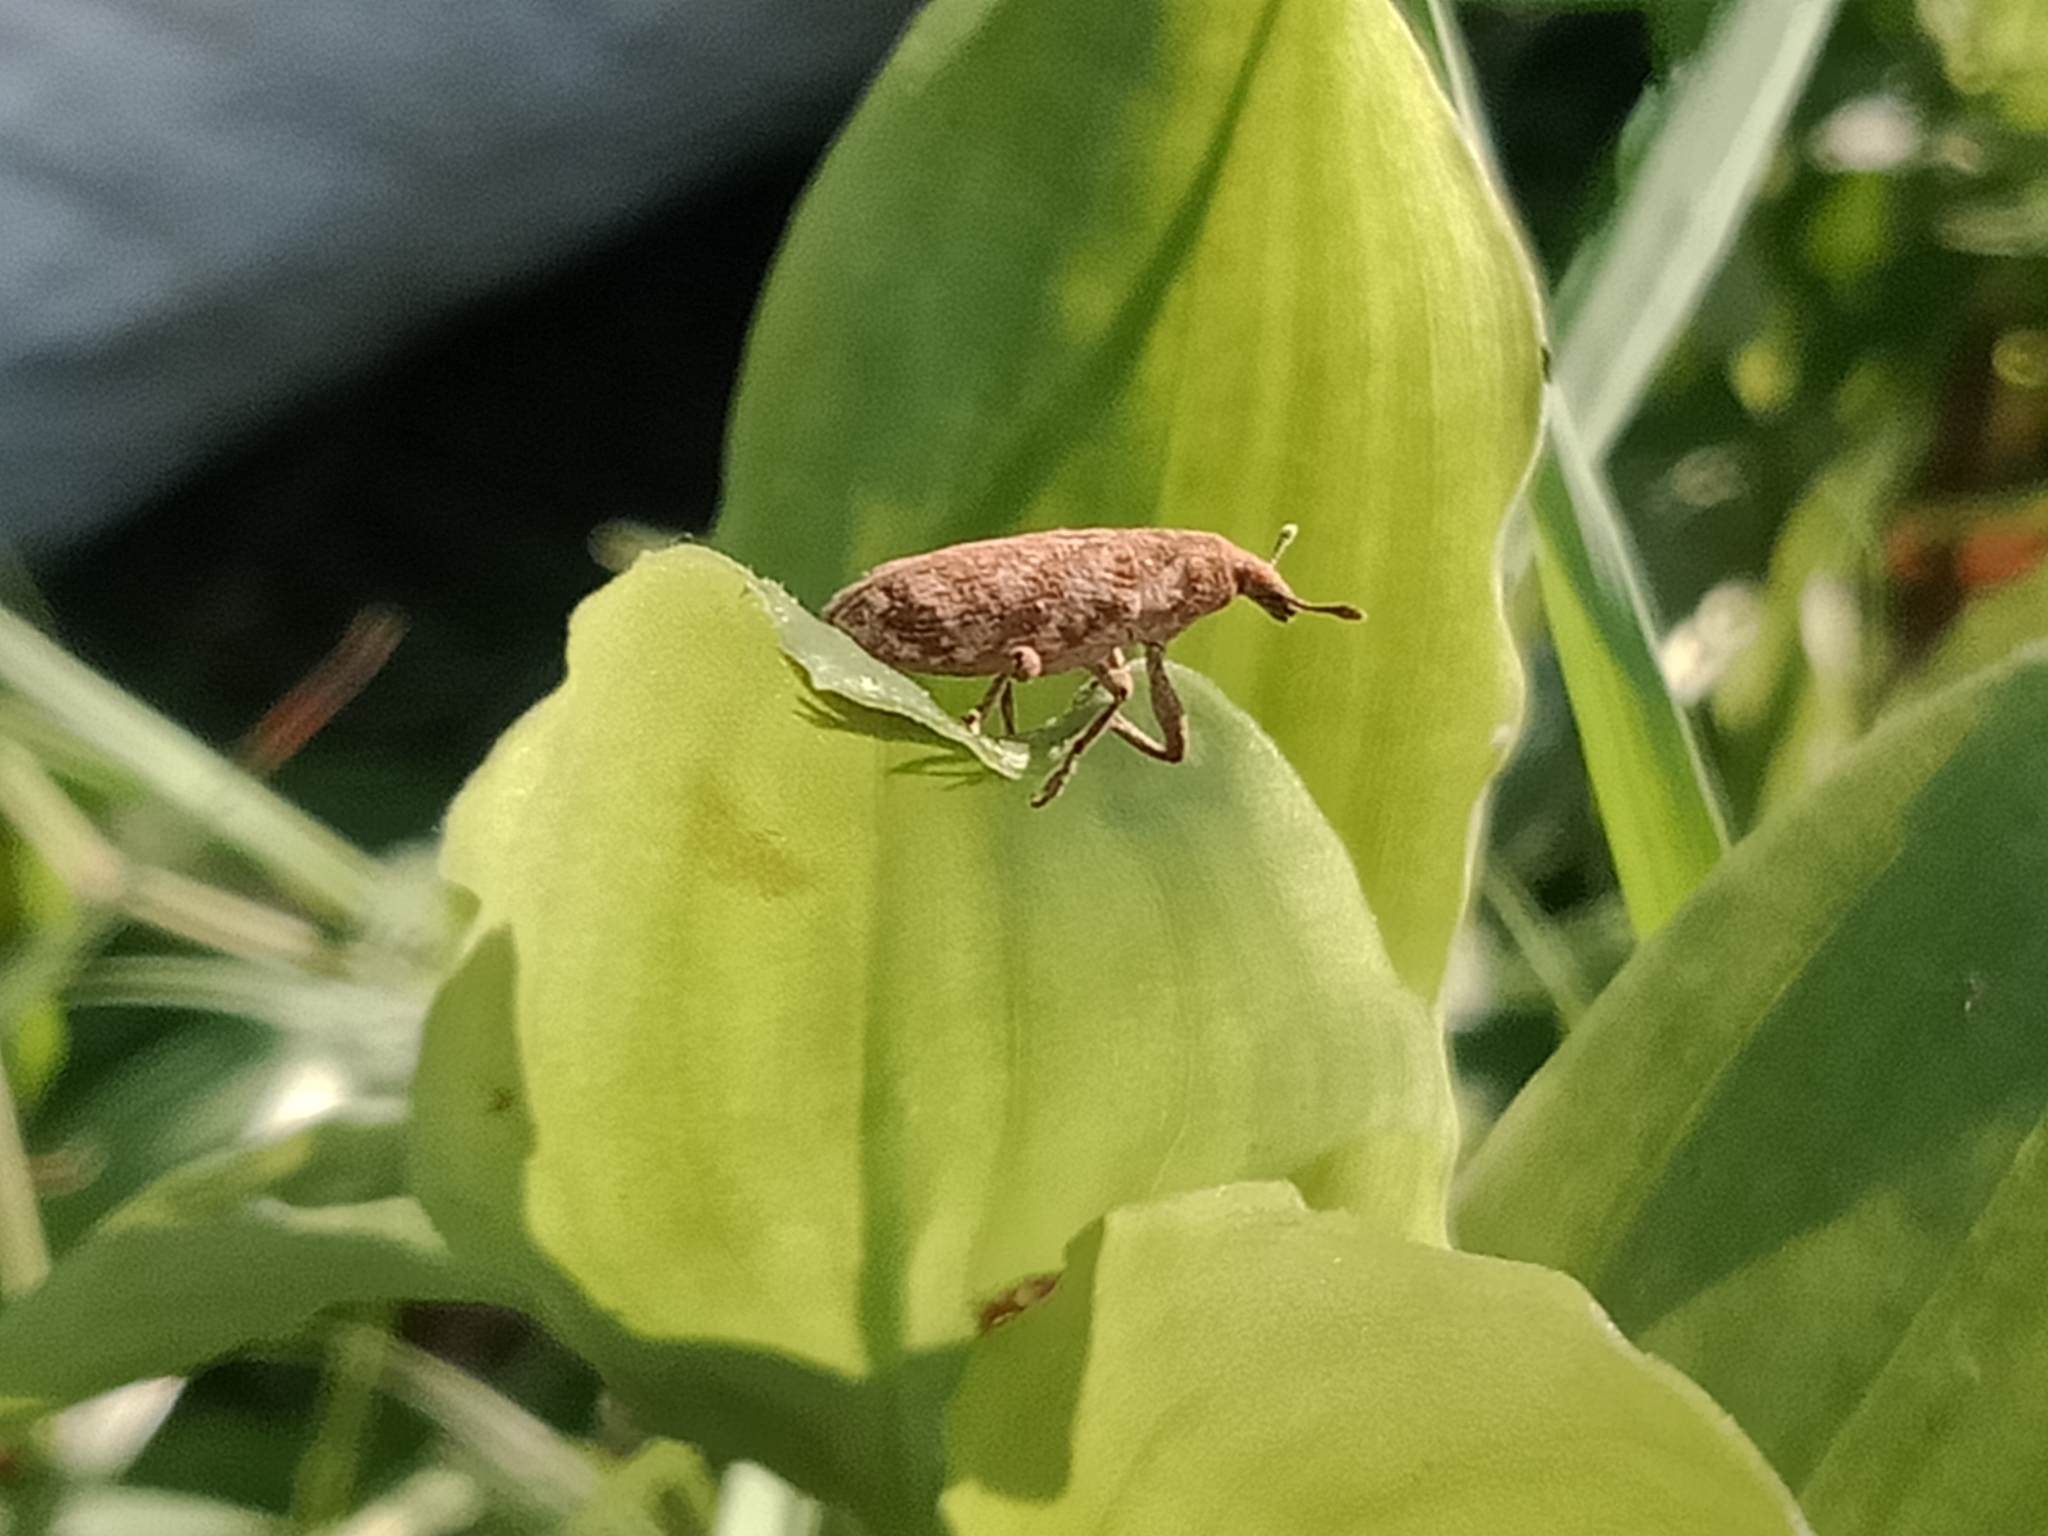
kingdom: Animalia
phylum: Arthropoda
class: Insecta
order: Coleoptera
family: Curculionidae
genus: Gasteroclisus
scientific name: Gasteroclisus
